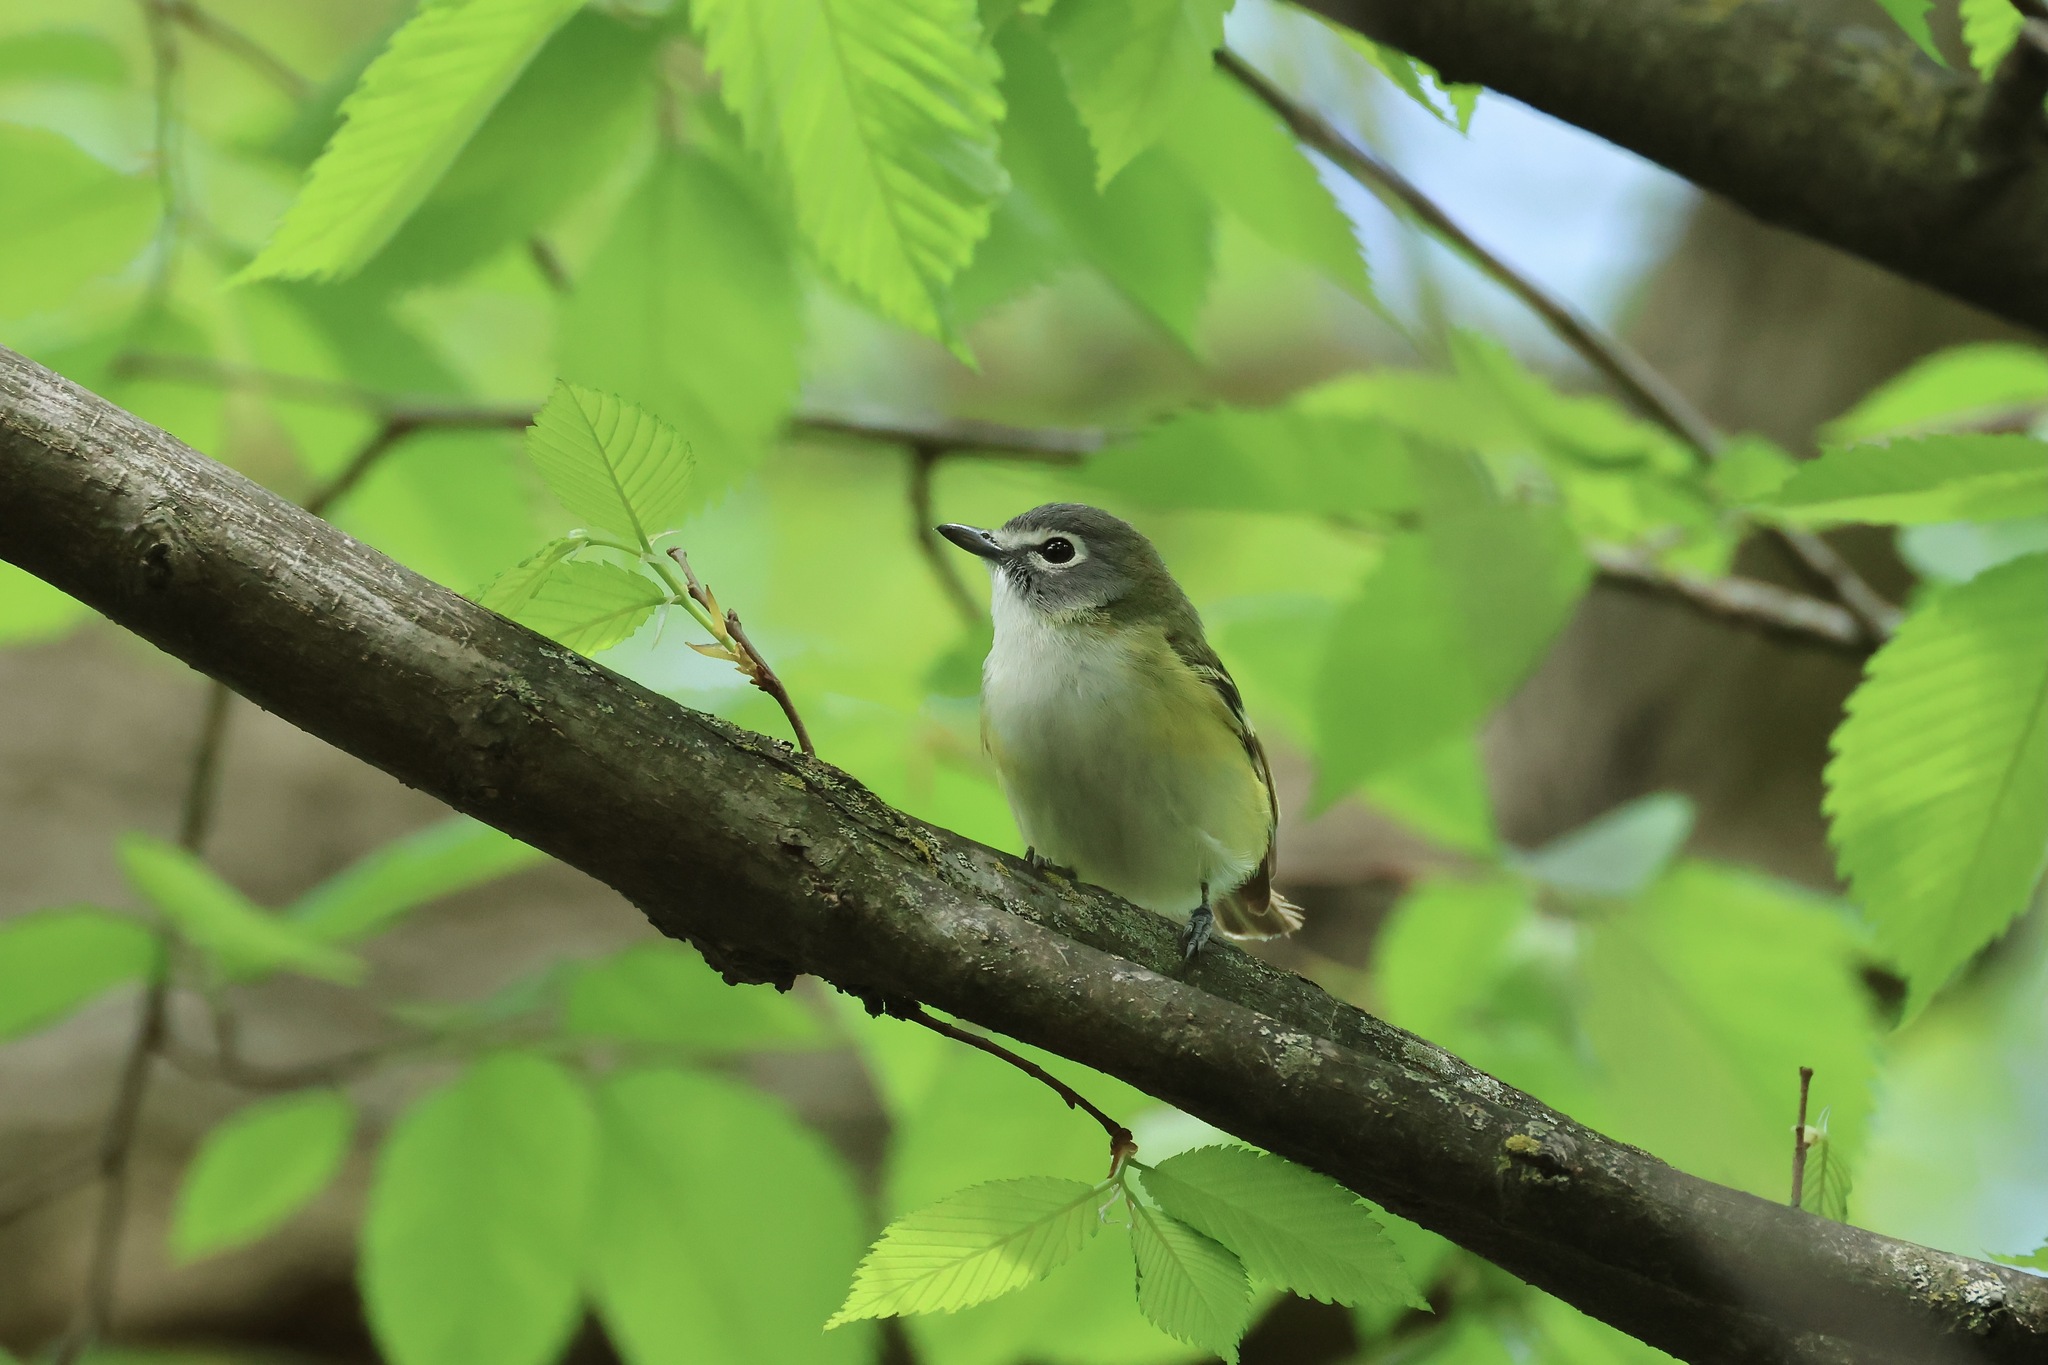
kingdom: Animalia
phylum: Chordata
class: Aves
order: Passeriformes
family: Vireonidae
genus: Vireo
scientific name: Vireo solitarius
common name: Blue-headed vireo
